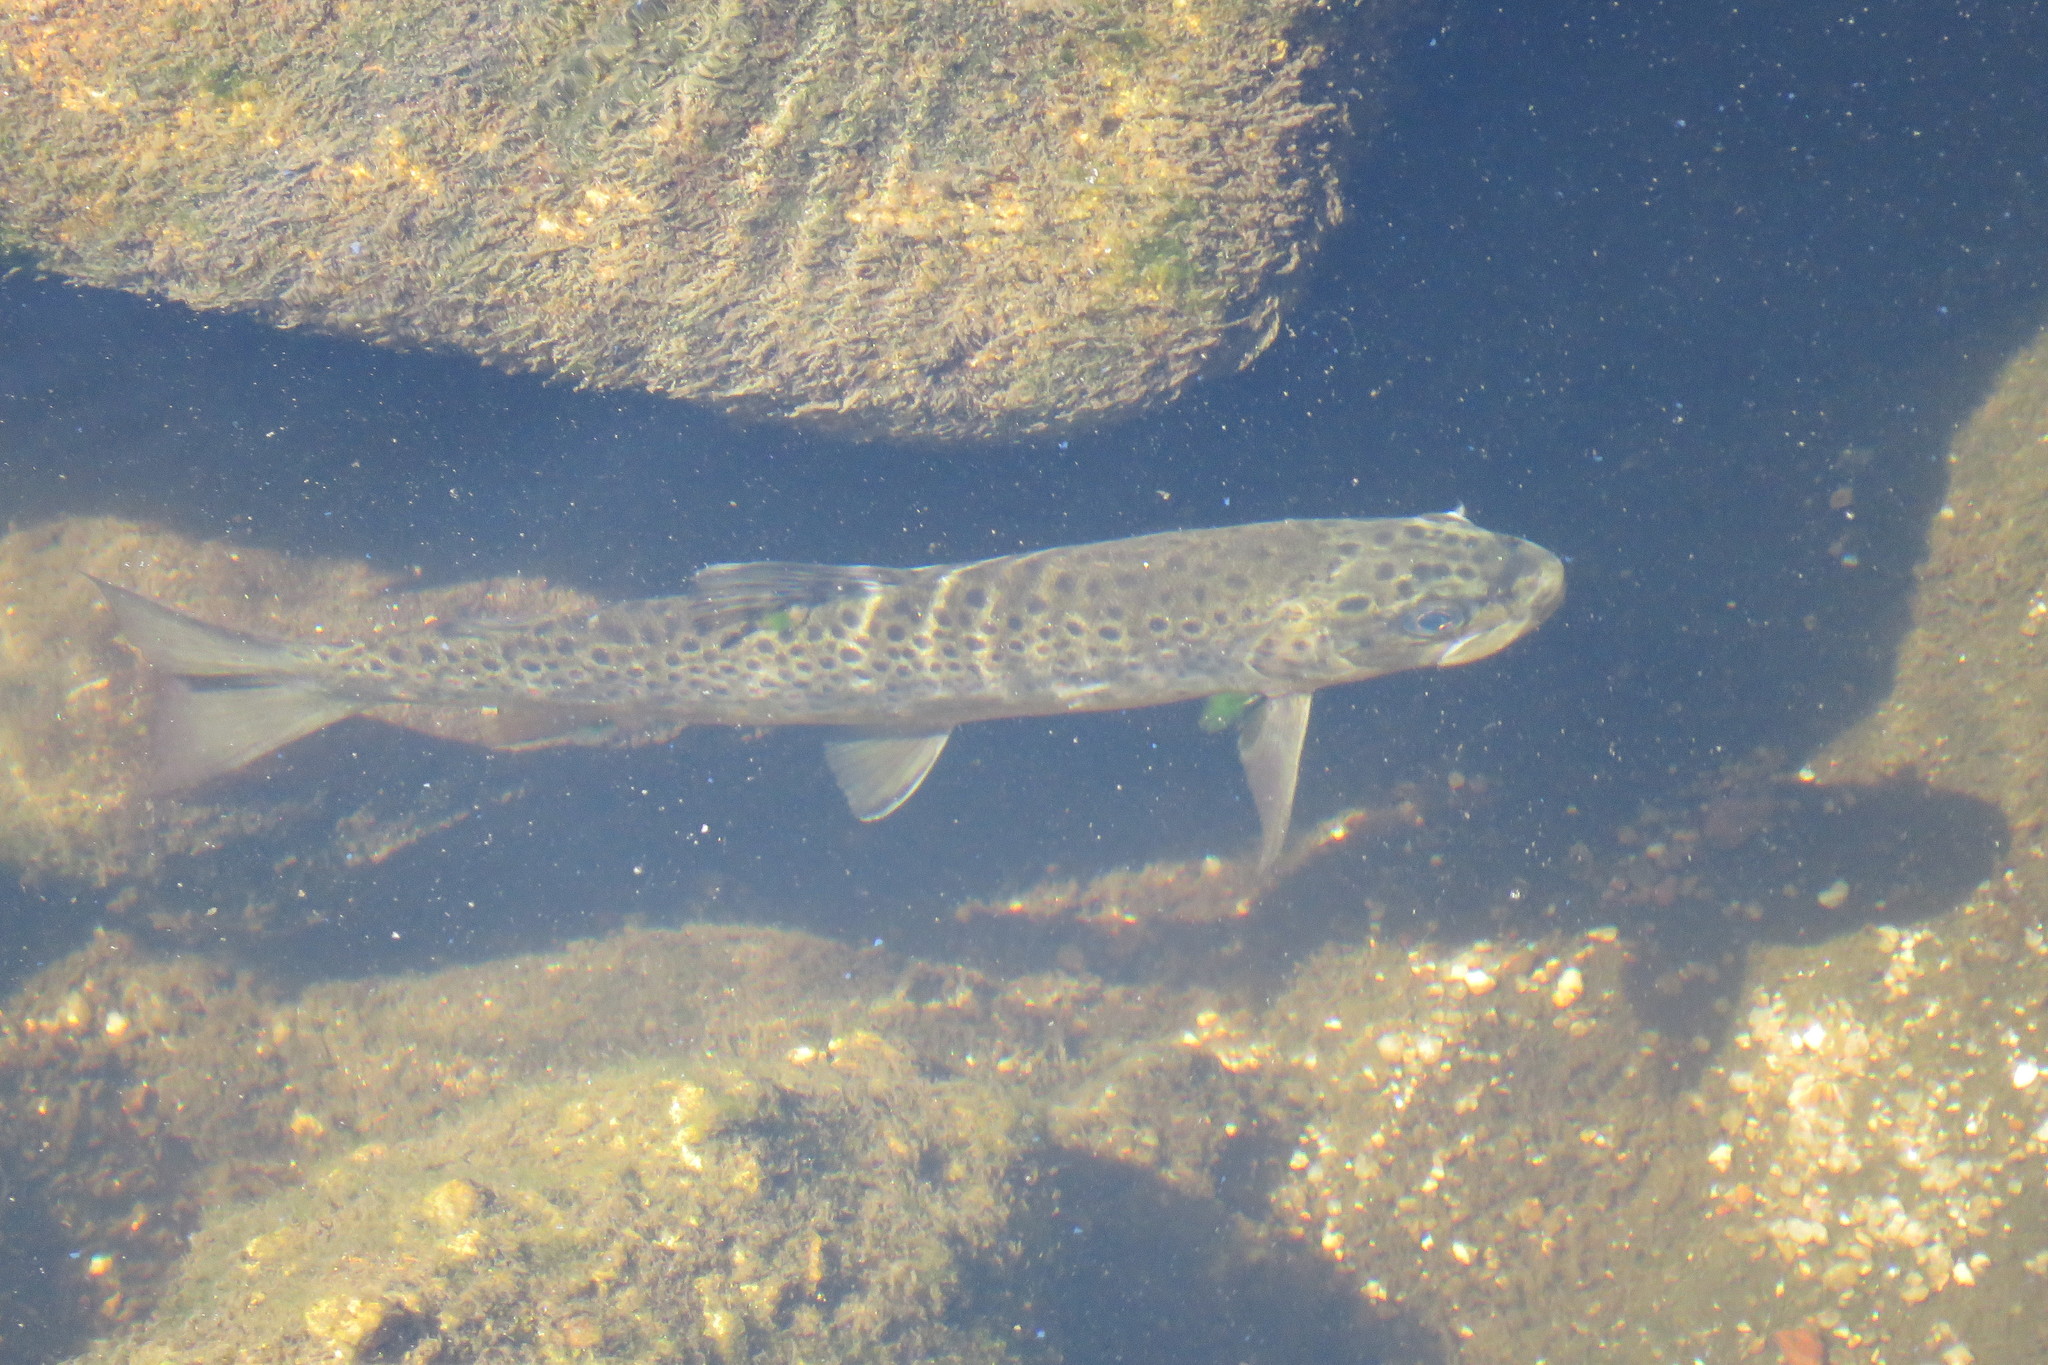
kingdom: Animalia
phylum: Chordata
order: Salmoniformes
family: Salmonidae
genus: Salmo
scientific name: Salmo trutta
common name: Brown trout
